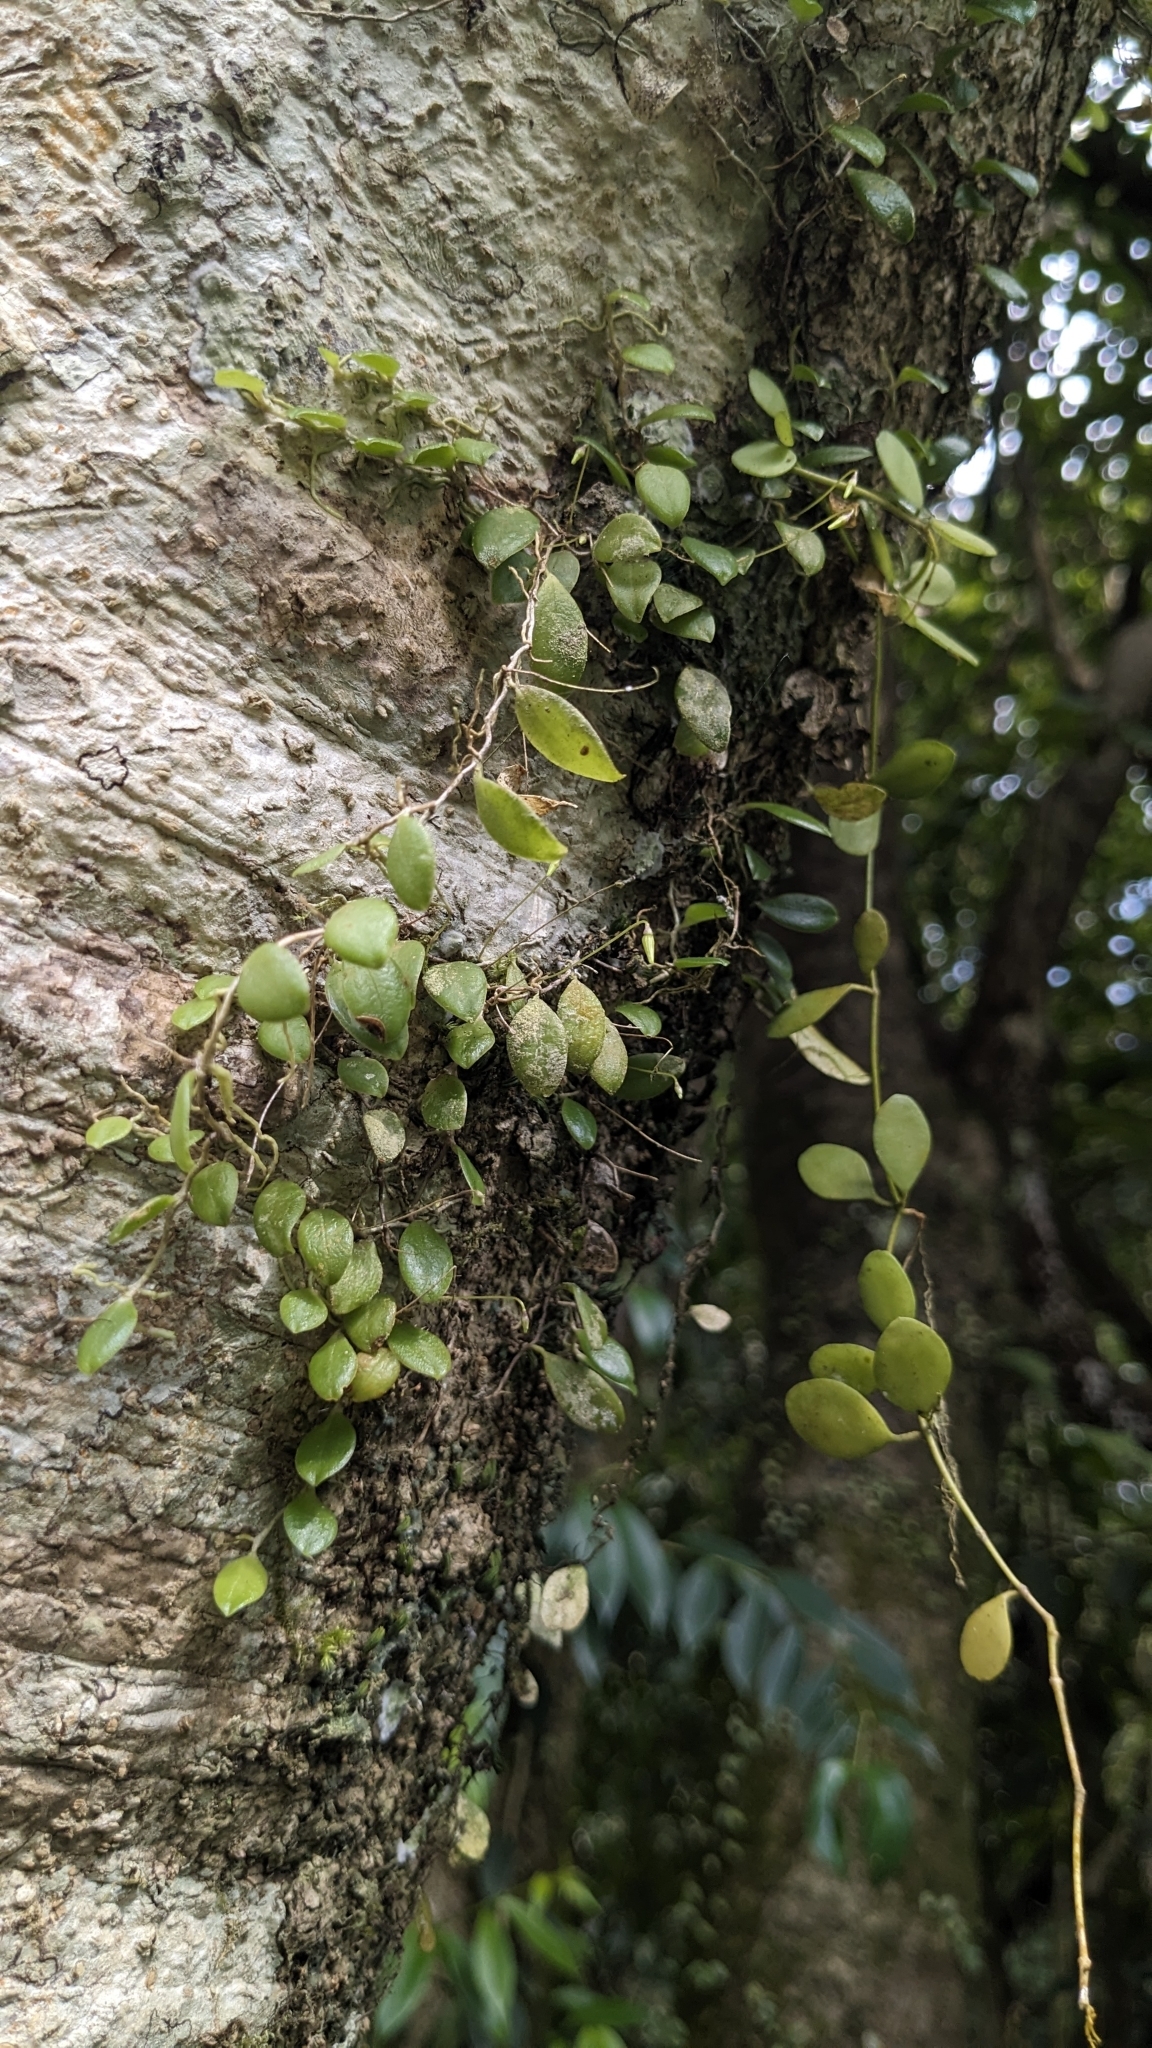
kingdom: Plantae
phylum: Tracheophyta
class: Liliopsida
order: Asparagales
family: Orchidaceae
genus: Bulbophyllum
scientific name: Bulbophyllum drymoglossum
